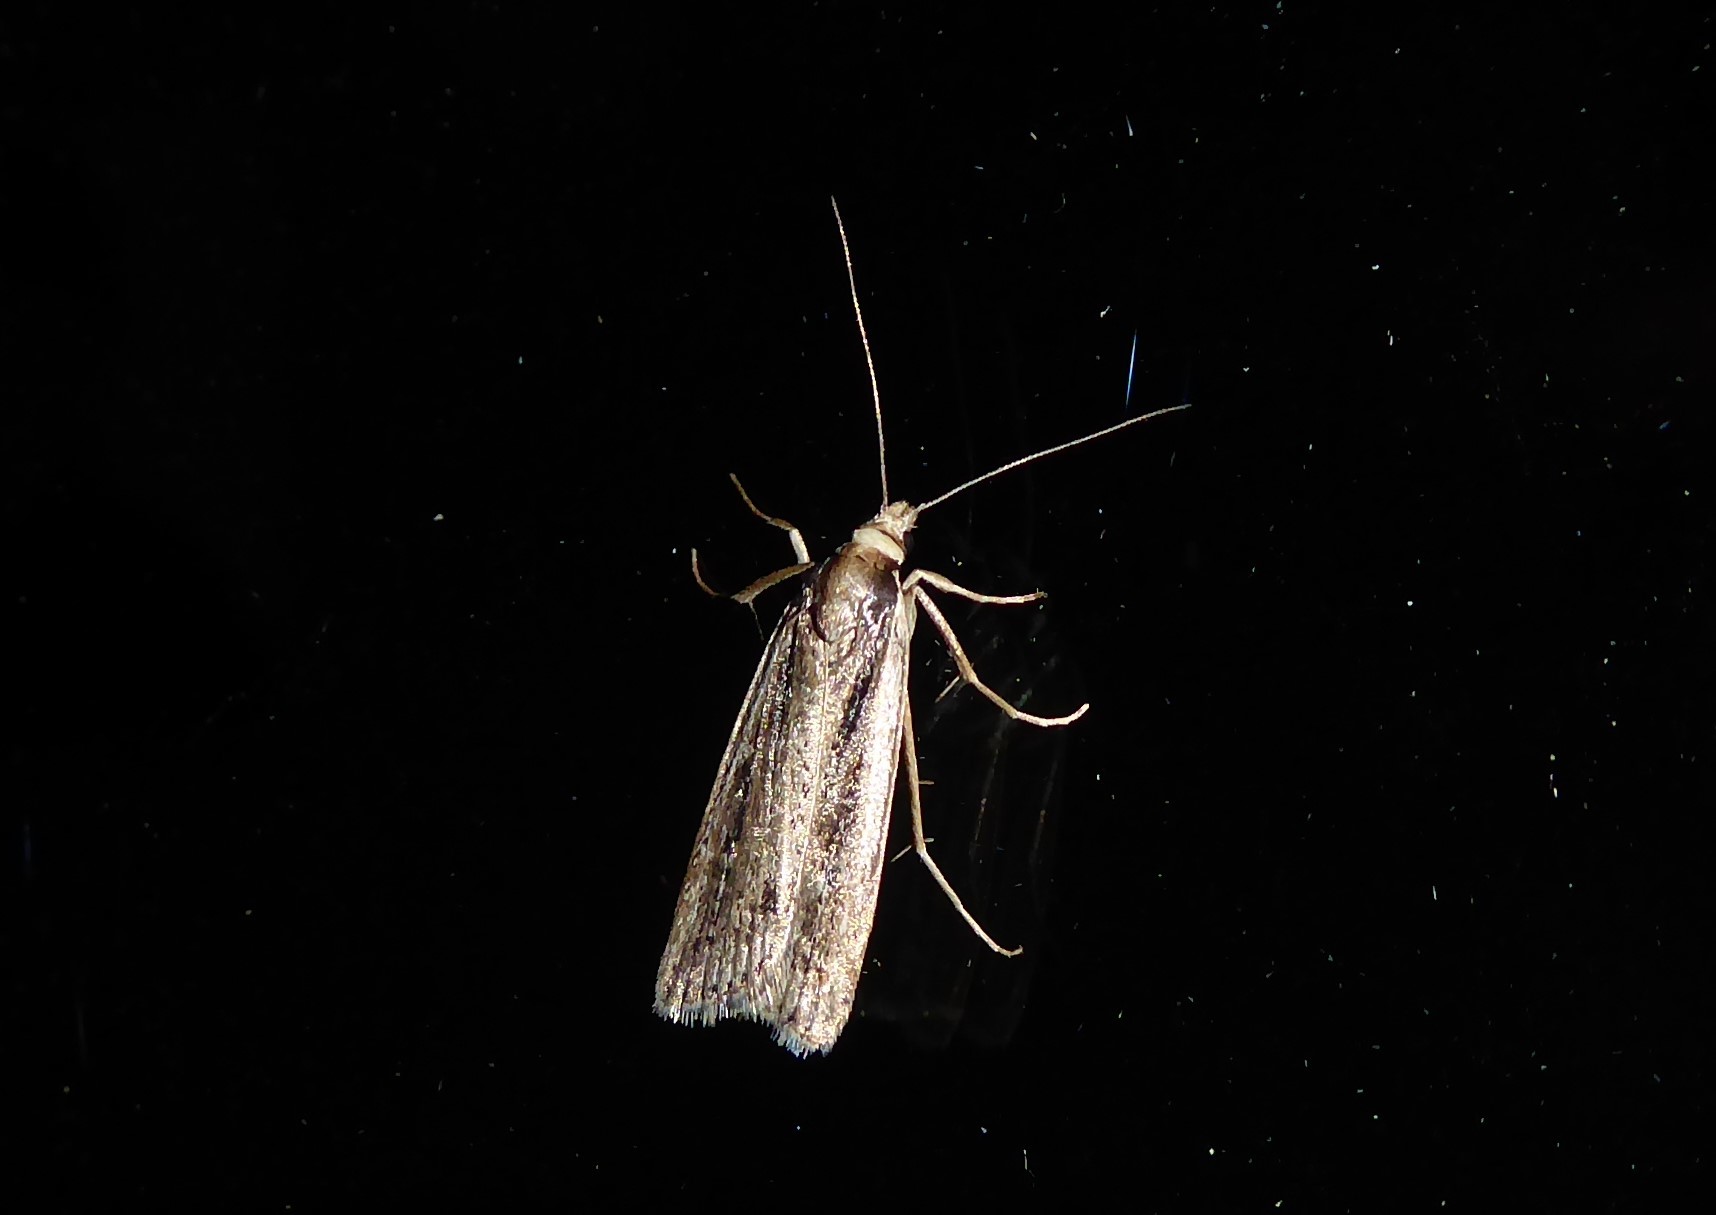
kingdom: Animalia
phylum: Arthropoda
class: Insecta
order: Lepidoptera
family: Crambidae
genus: Eudonia
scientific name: Eudonia sabulosella
